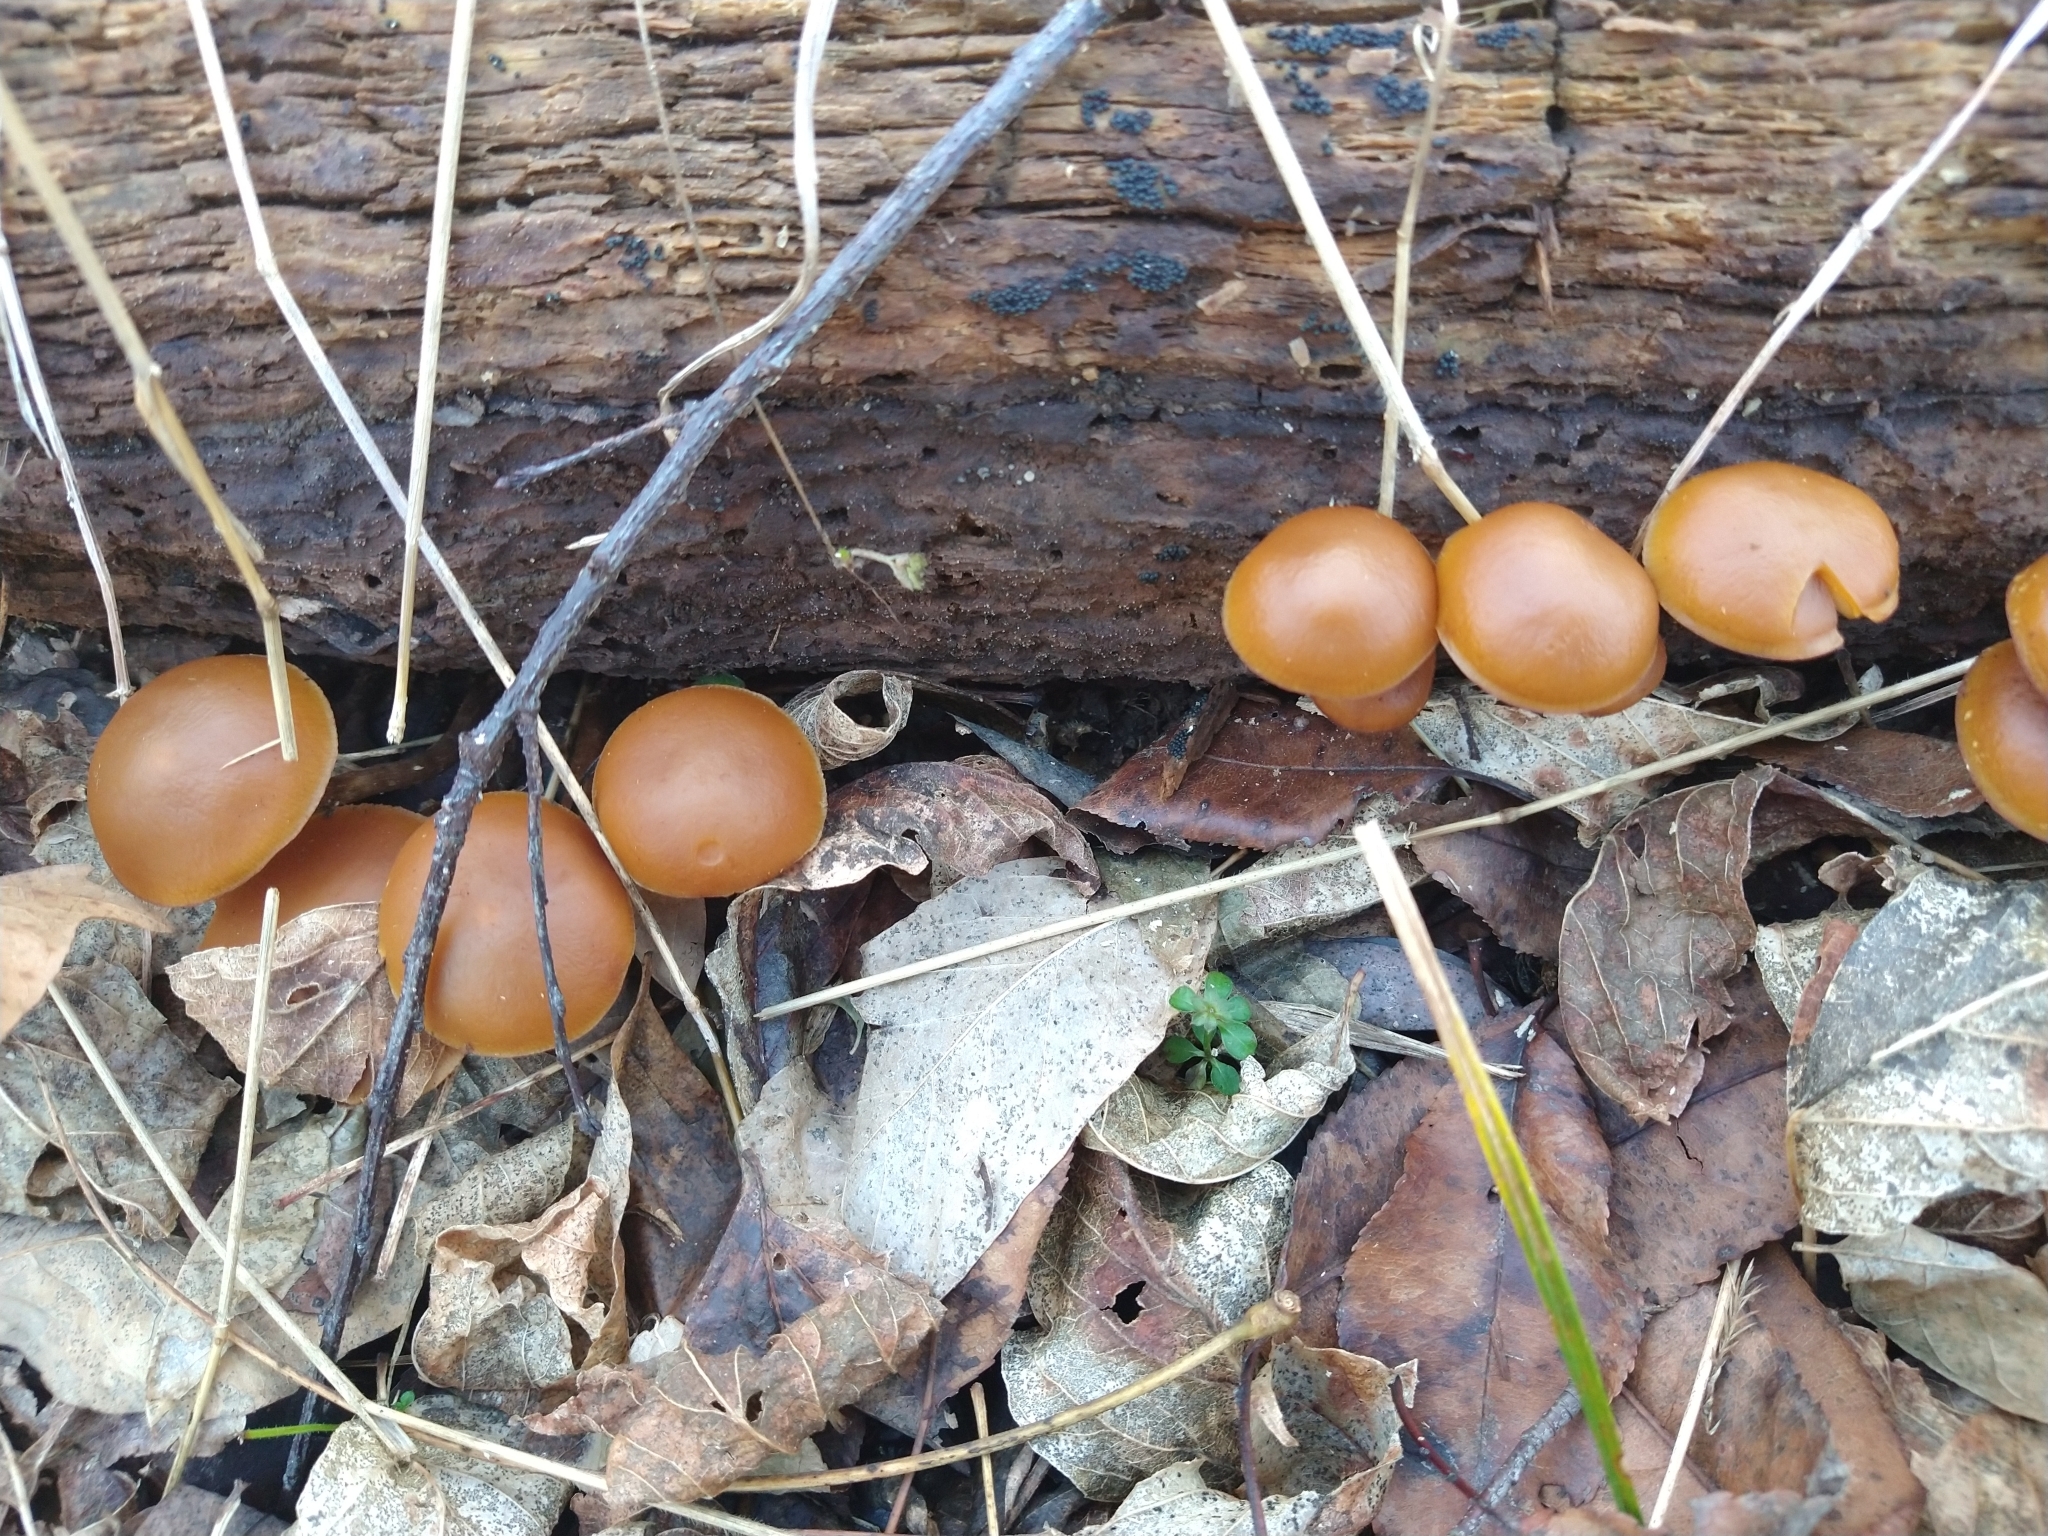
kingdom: Fungi
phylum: Basidiomycota
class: Agaricomycetes
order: Agaricales
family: Hymenogastraceae
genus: Galerina
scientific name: Galerina marginata
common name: Funeral bell
